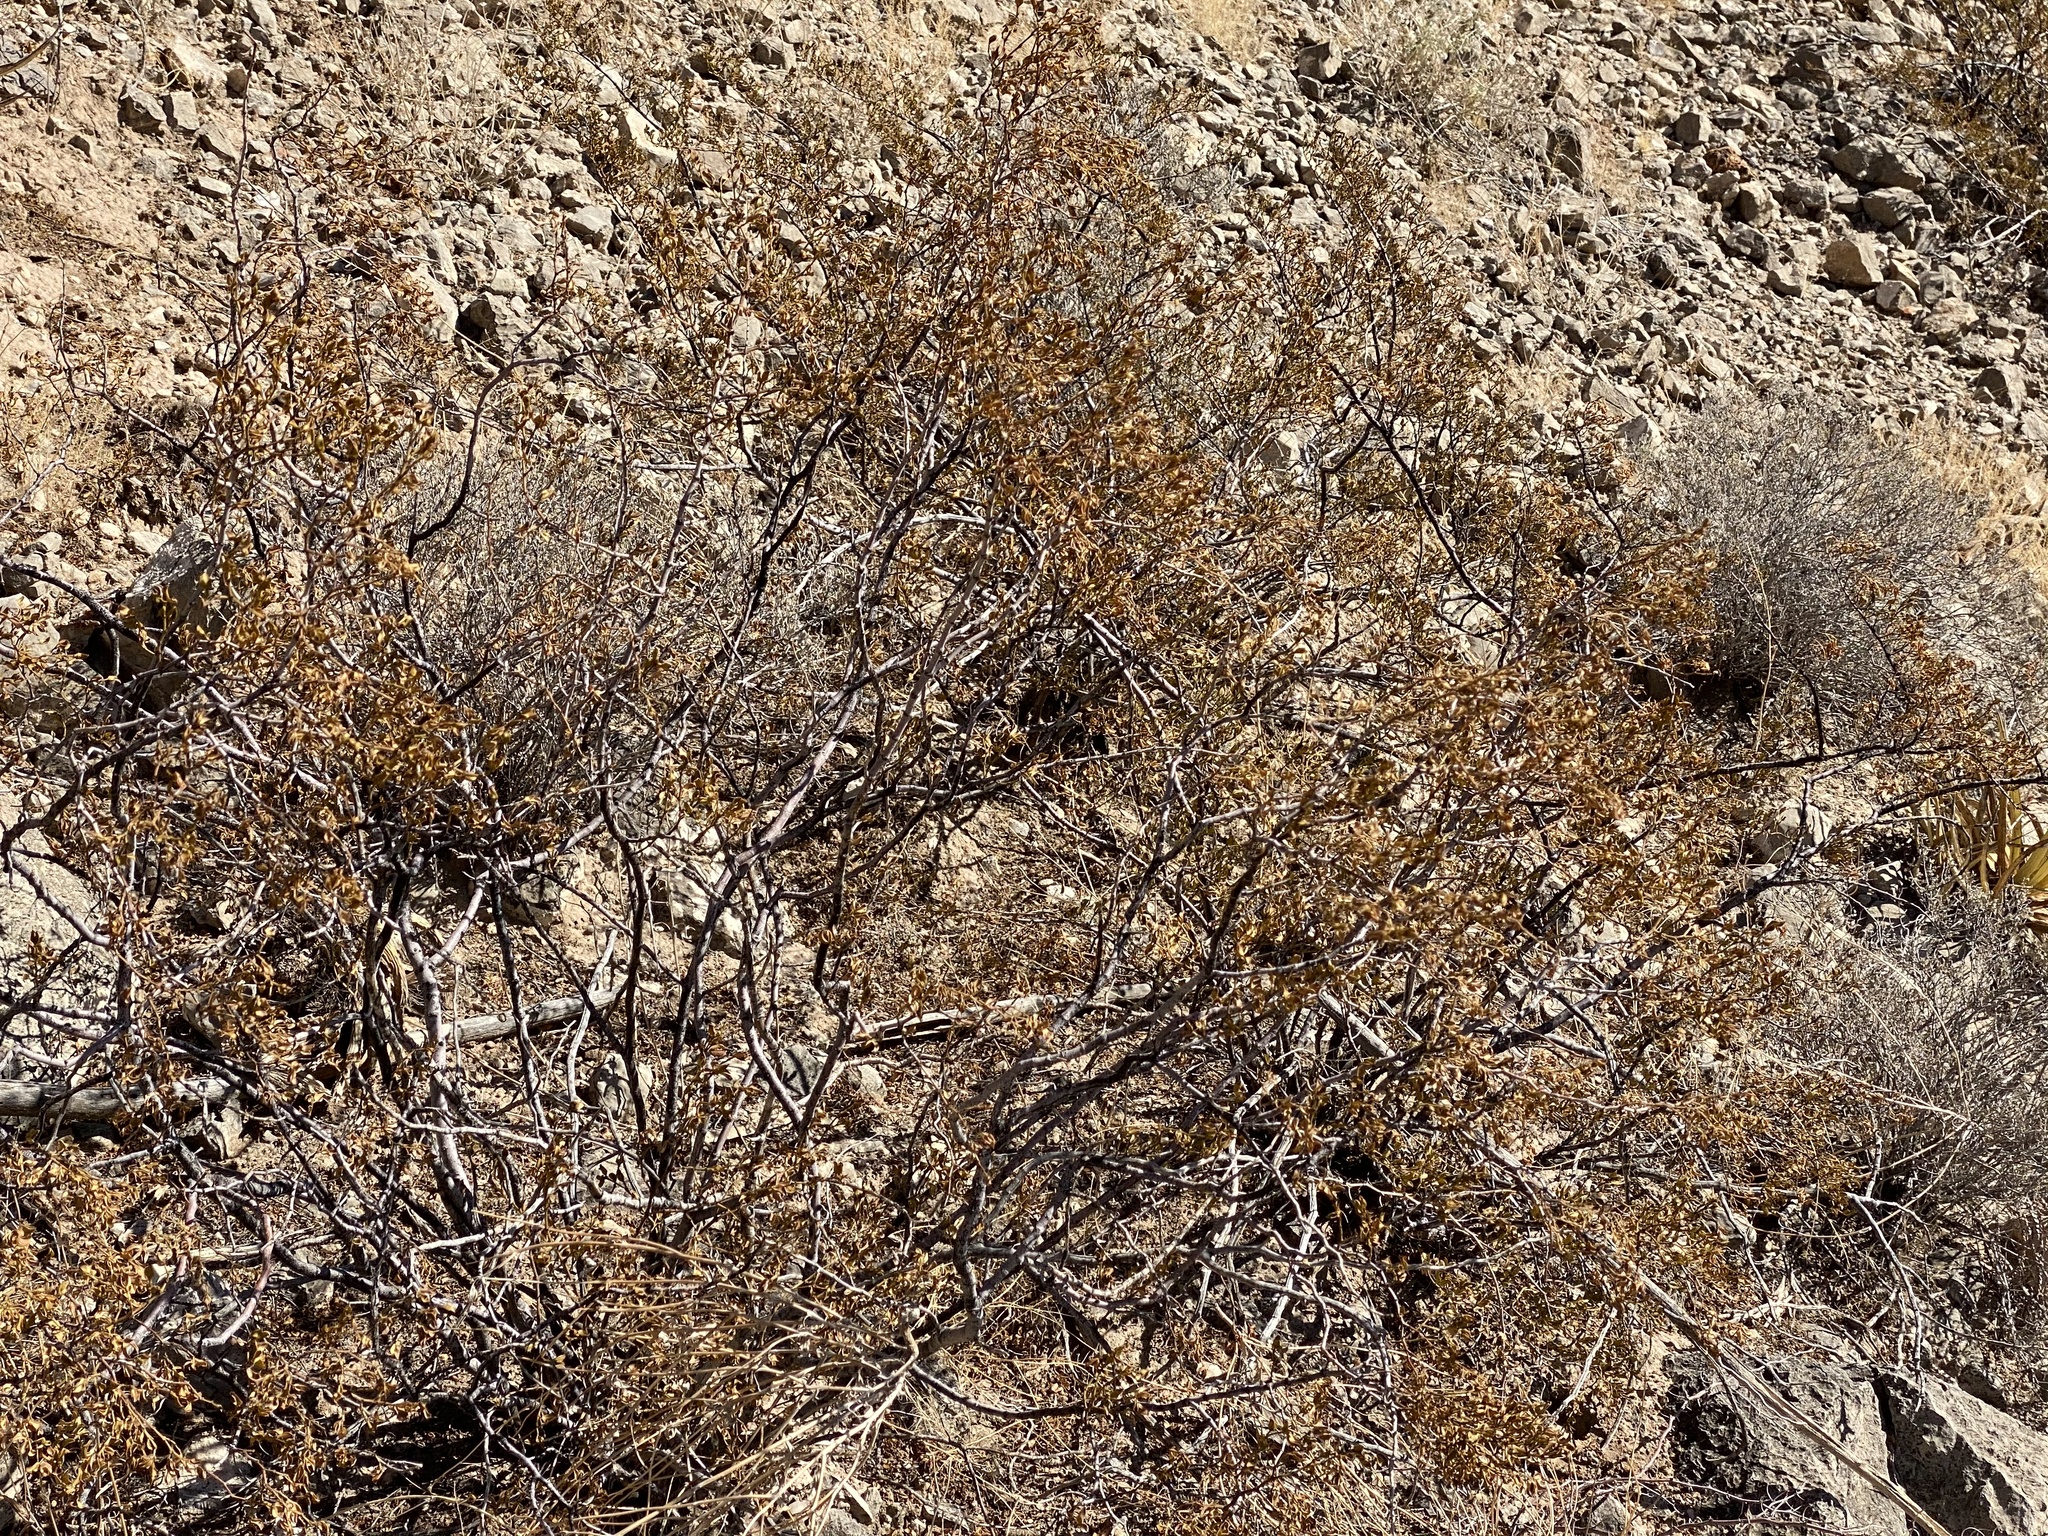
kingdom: Plantae
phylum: Tracheophyta
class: Magnoliopsida
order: Zygophyllales
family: Zygophyllaceae
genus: Larrea
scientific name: Larrea tridentata
